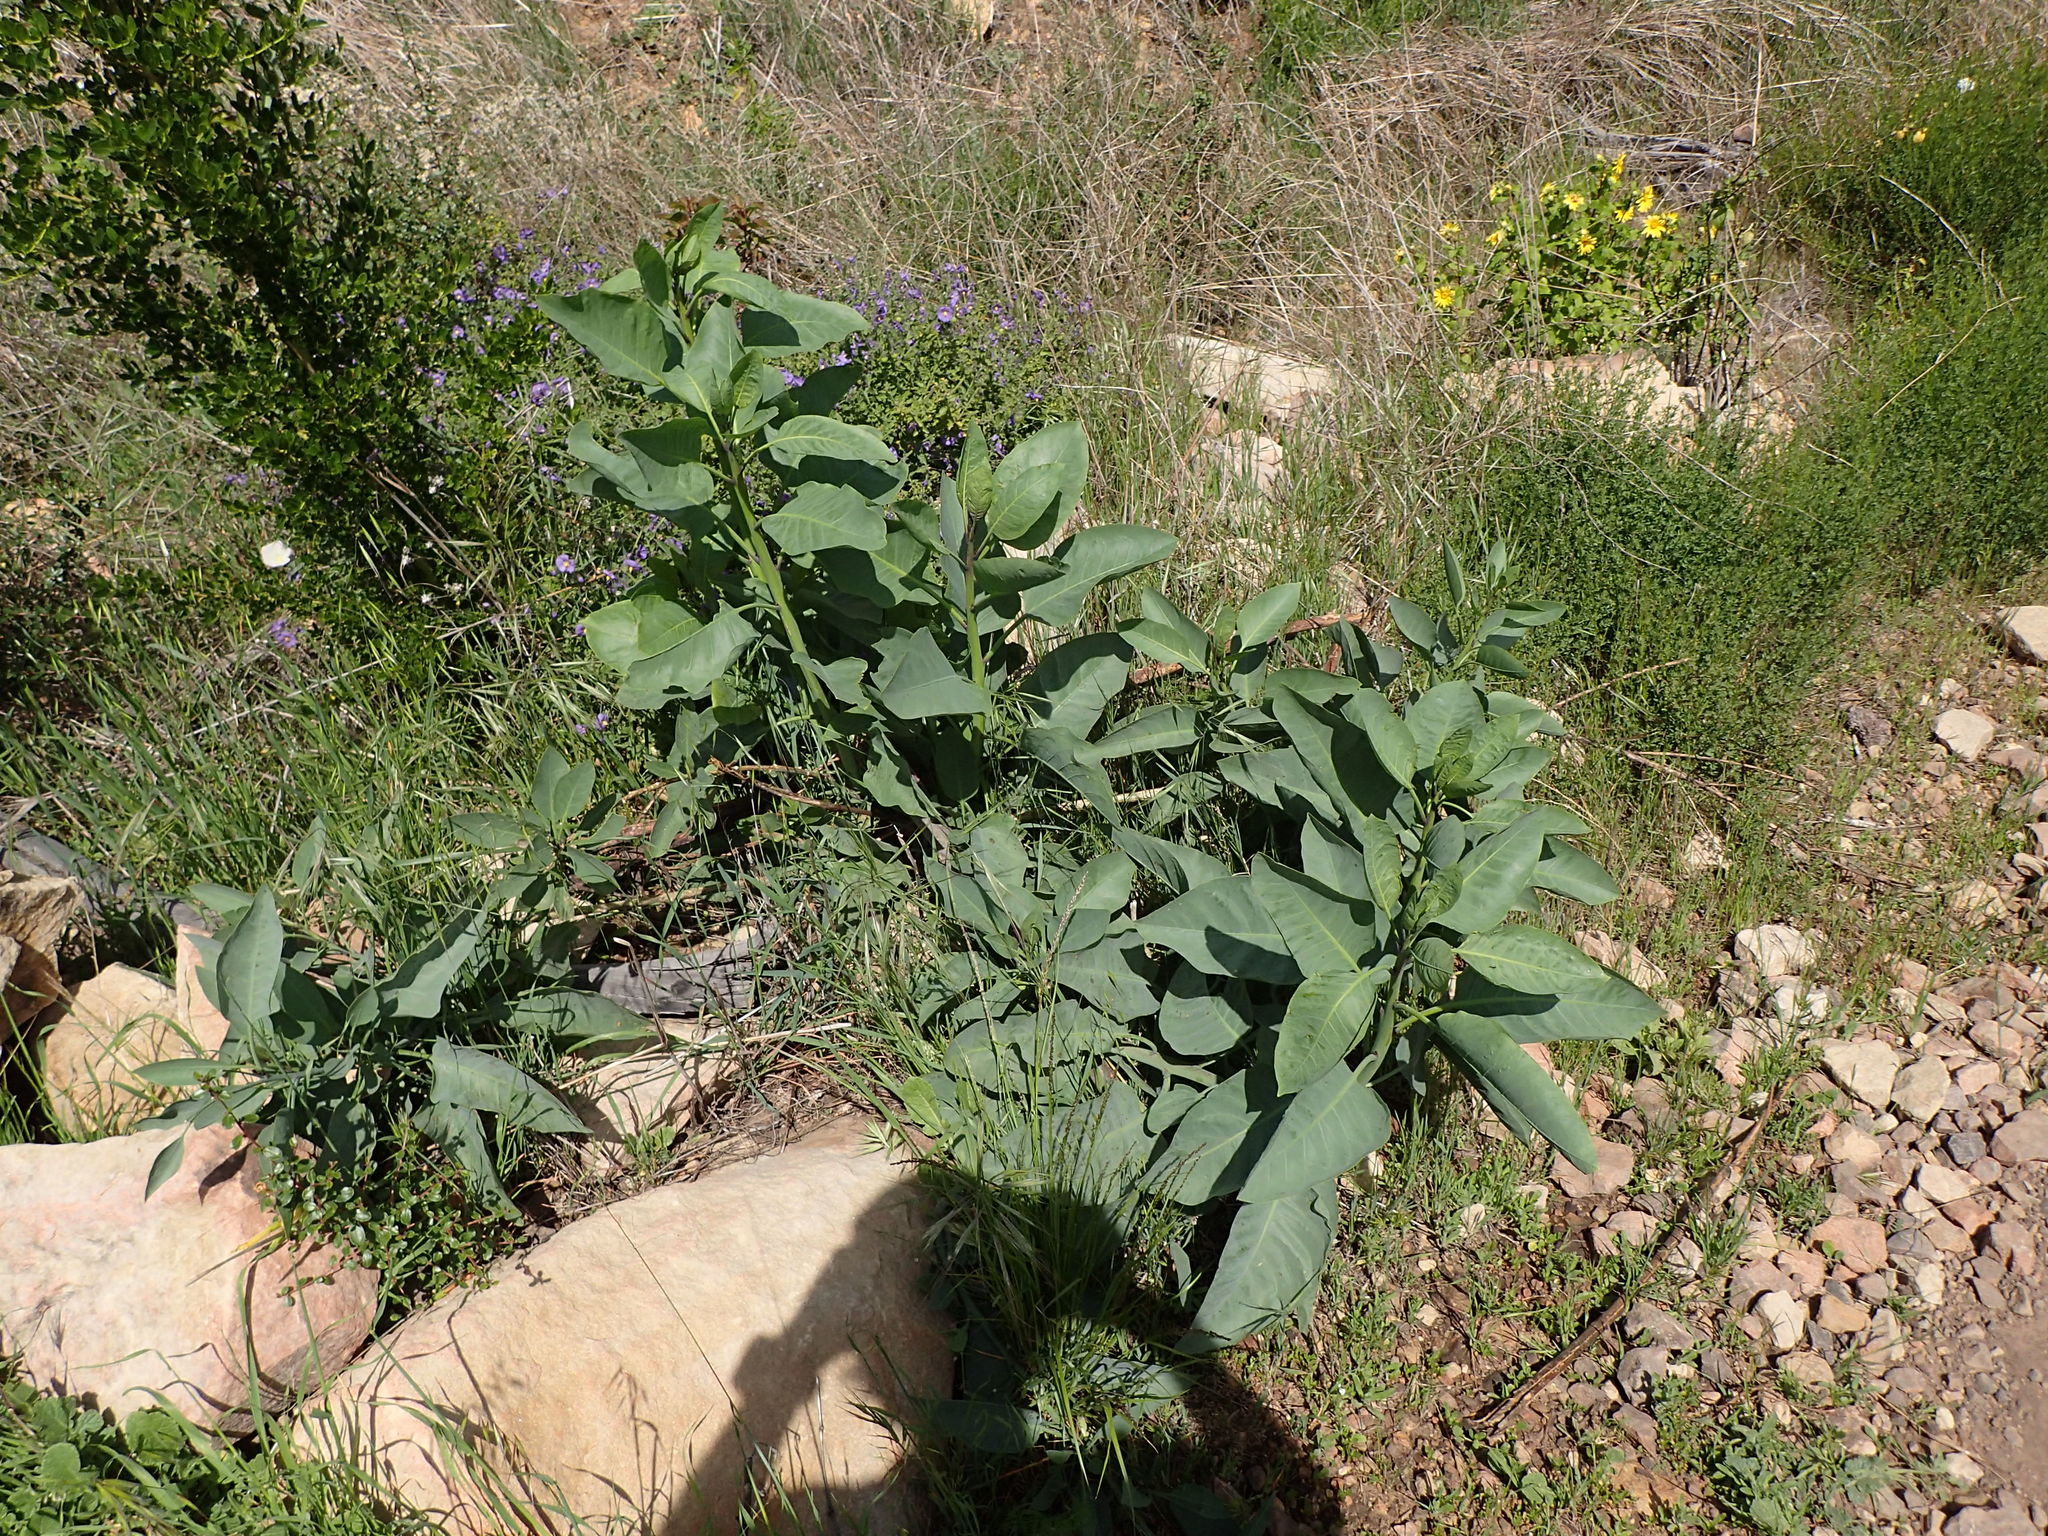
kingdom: Plantae
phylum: Tracheophyta
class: Magnoliopsida
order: Solanales
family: Solanaceae
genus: Nicotiana
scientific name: Nicotiana glauca
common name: Tree tobacco
